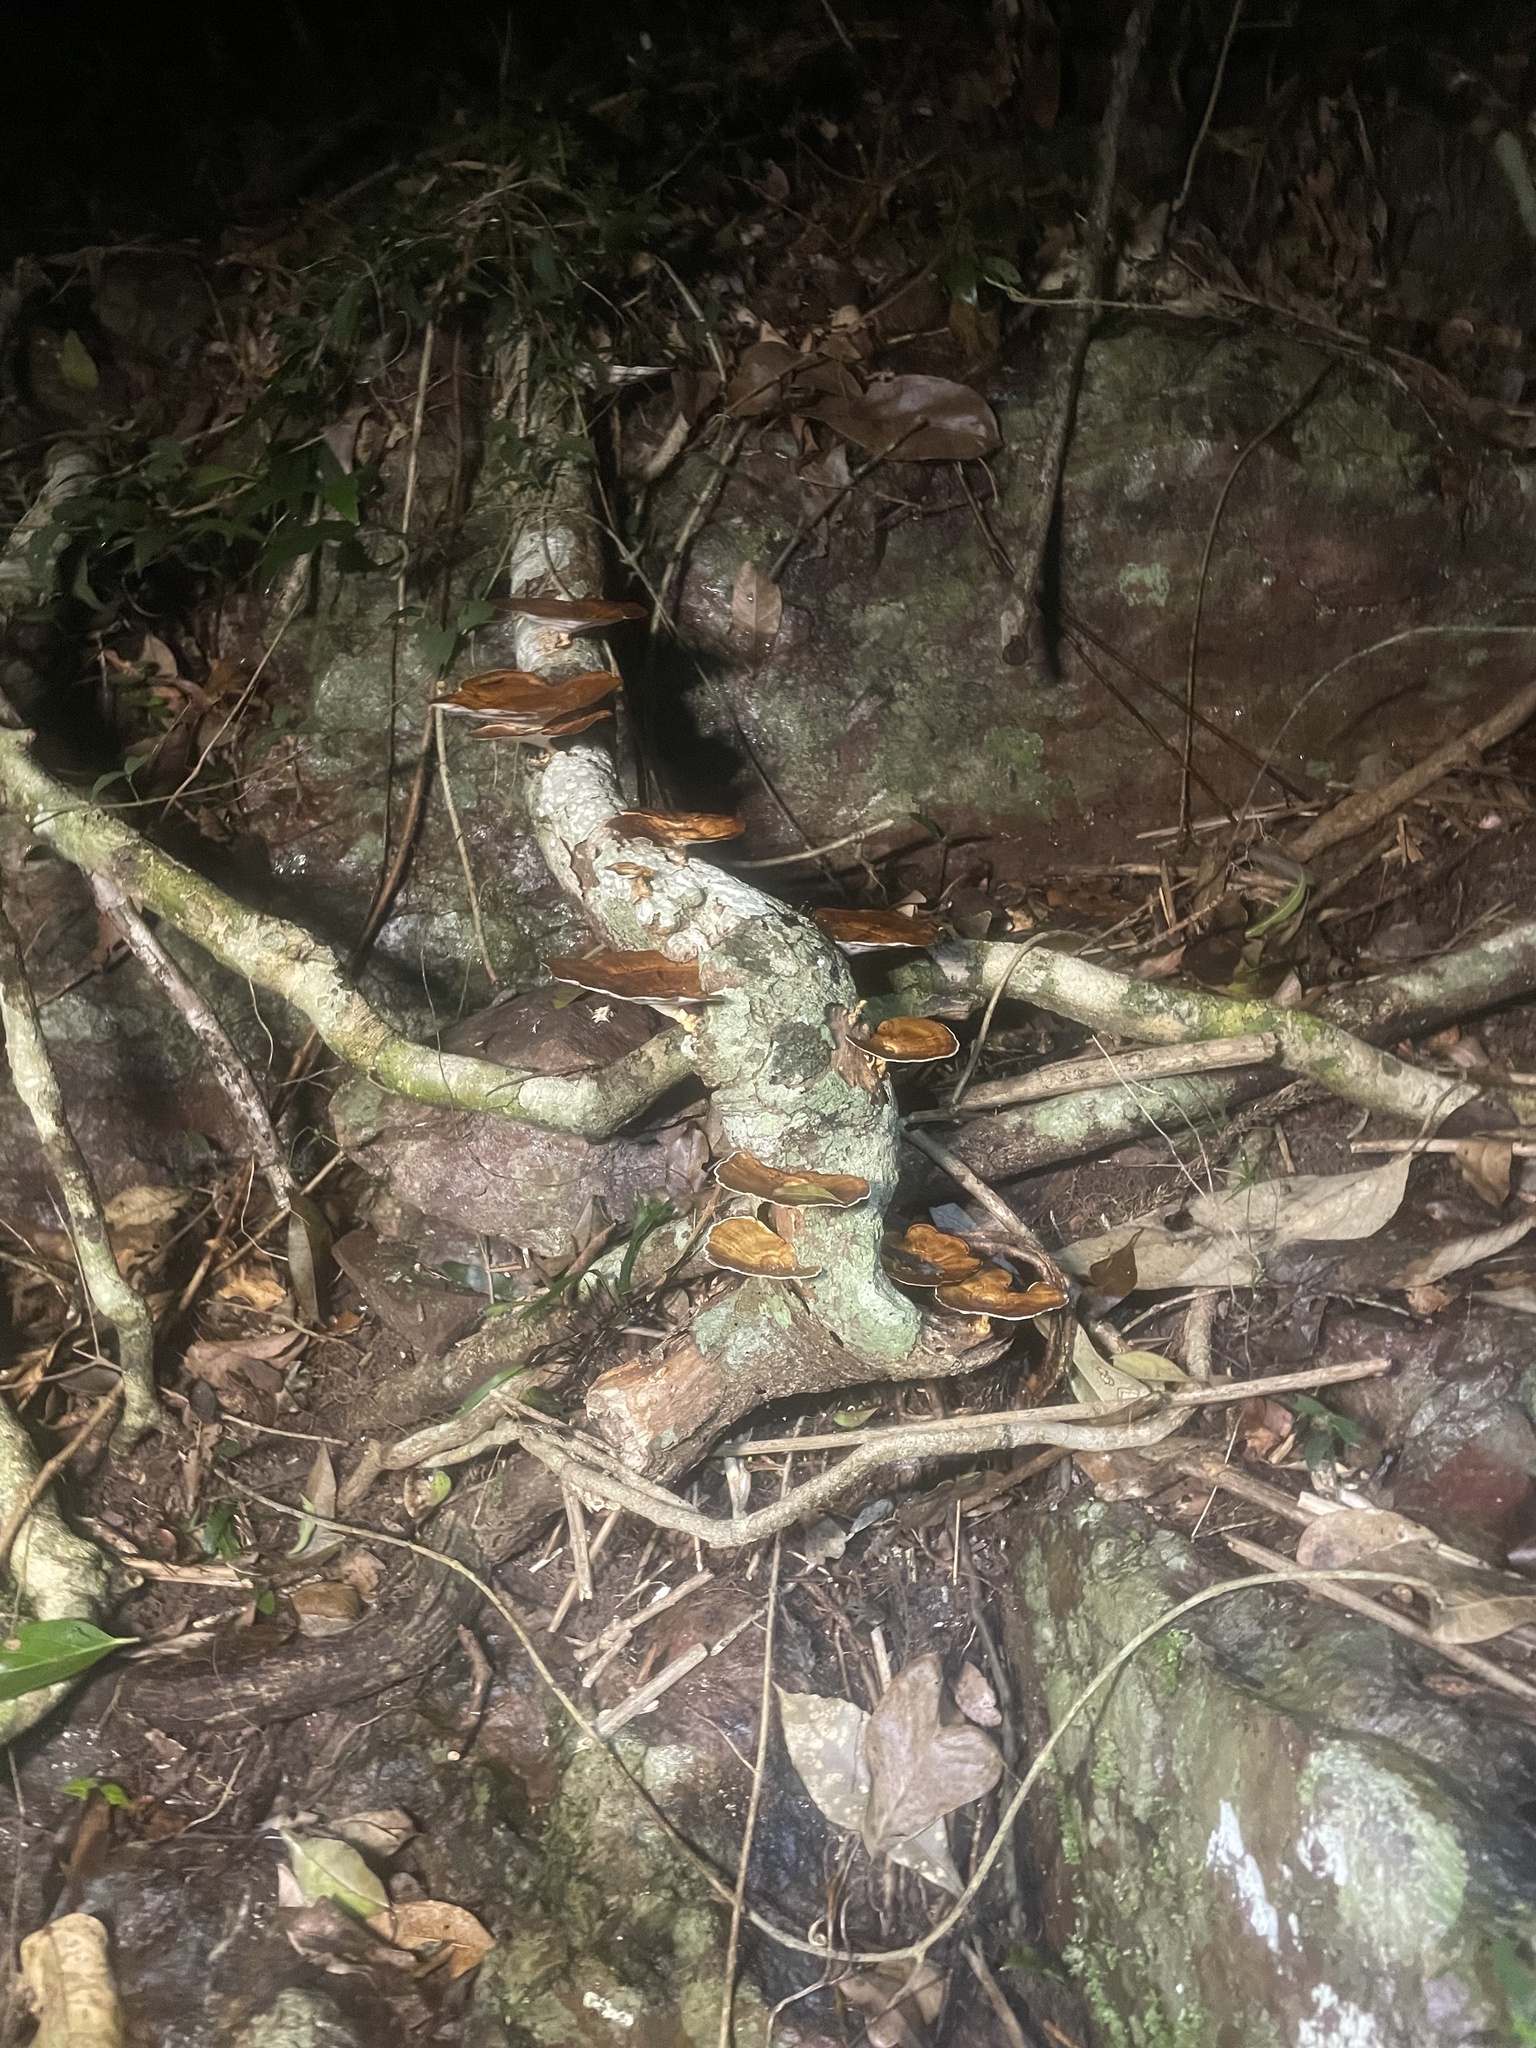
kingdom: Fungi
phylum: Basidiomycota
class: Agaricomycetes
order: Polyporales
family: Polyporaceae
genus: Microporus
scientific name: Microporus xanthopus
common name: Yellow-stemmed micropore
